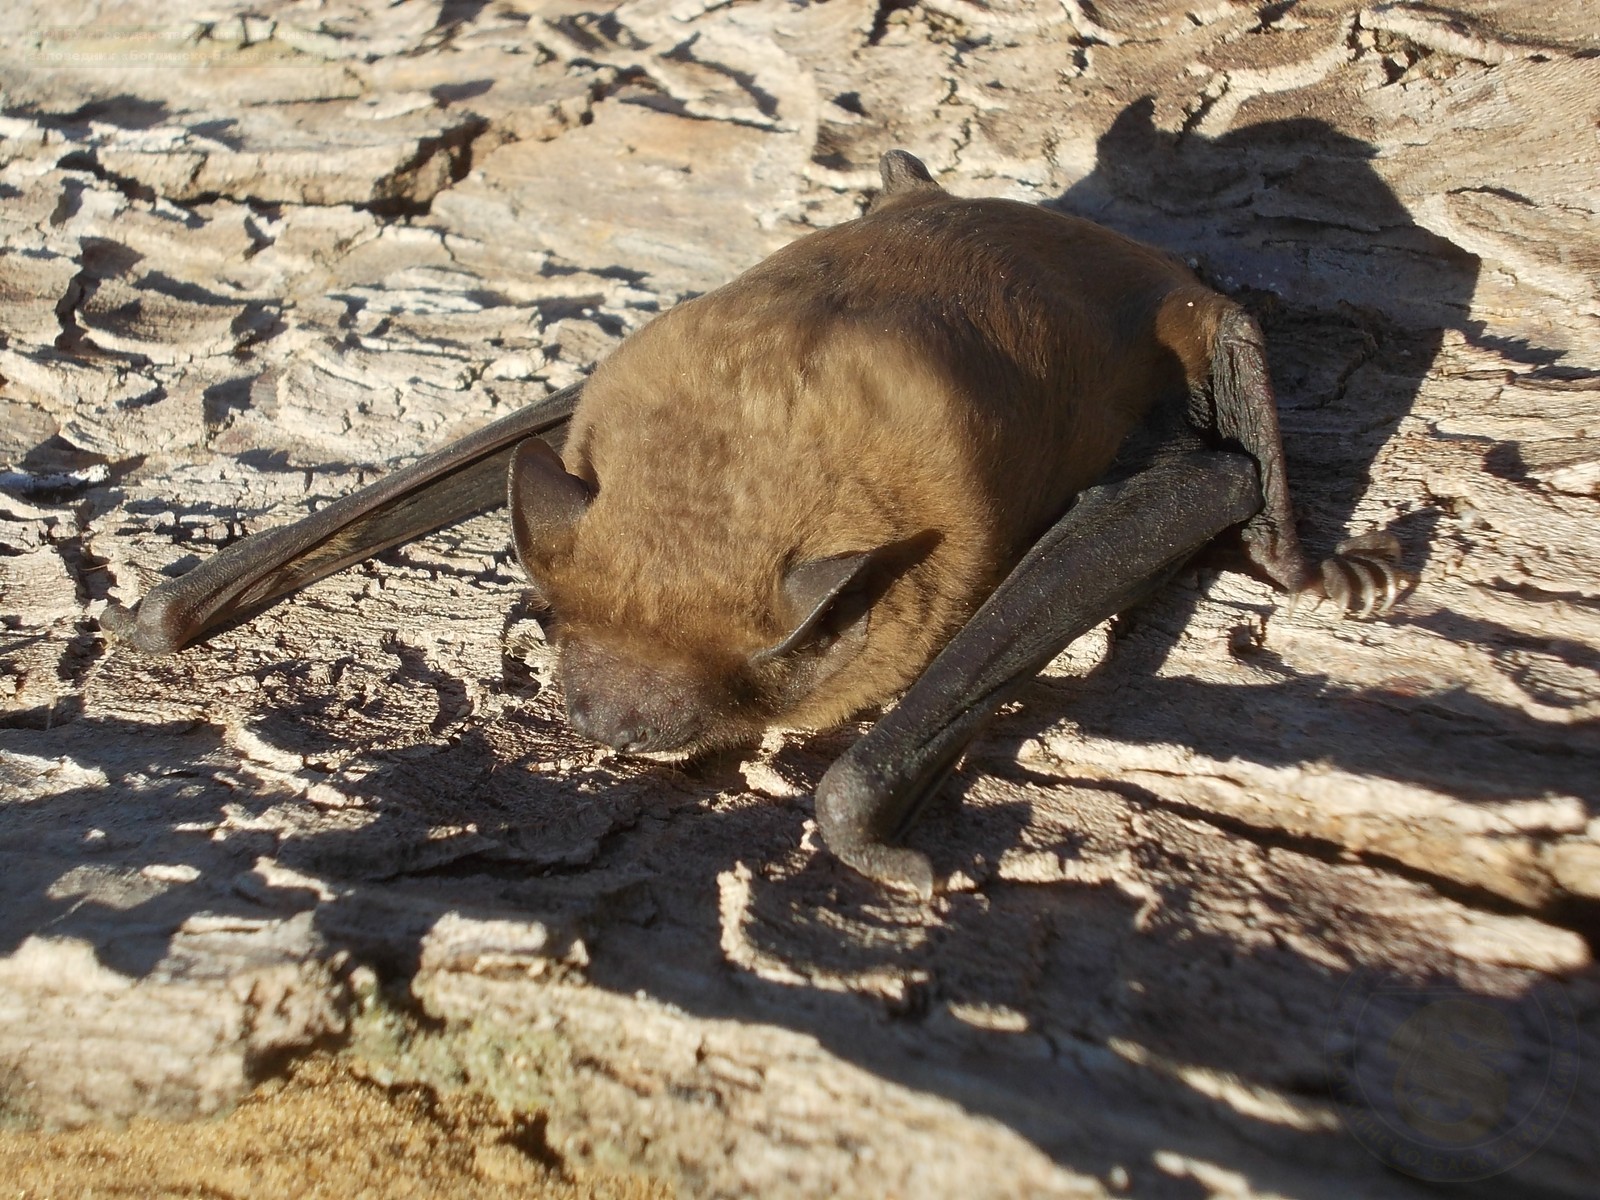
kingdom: Animalia
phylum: Chordata
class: Mammalia
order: Chiroptera
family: Vespertilionidae
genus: Nyctalus
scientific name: Nyctalus noctula
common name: Noctule
